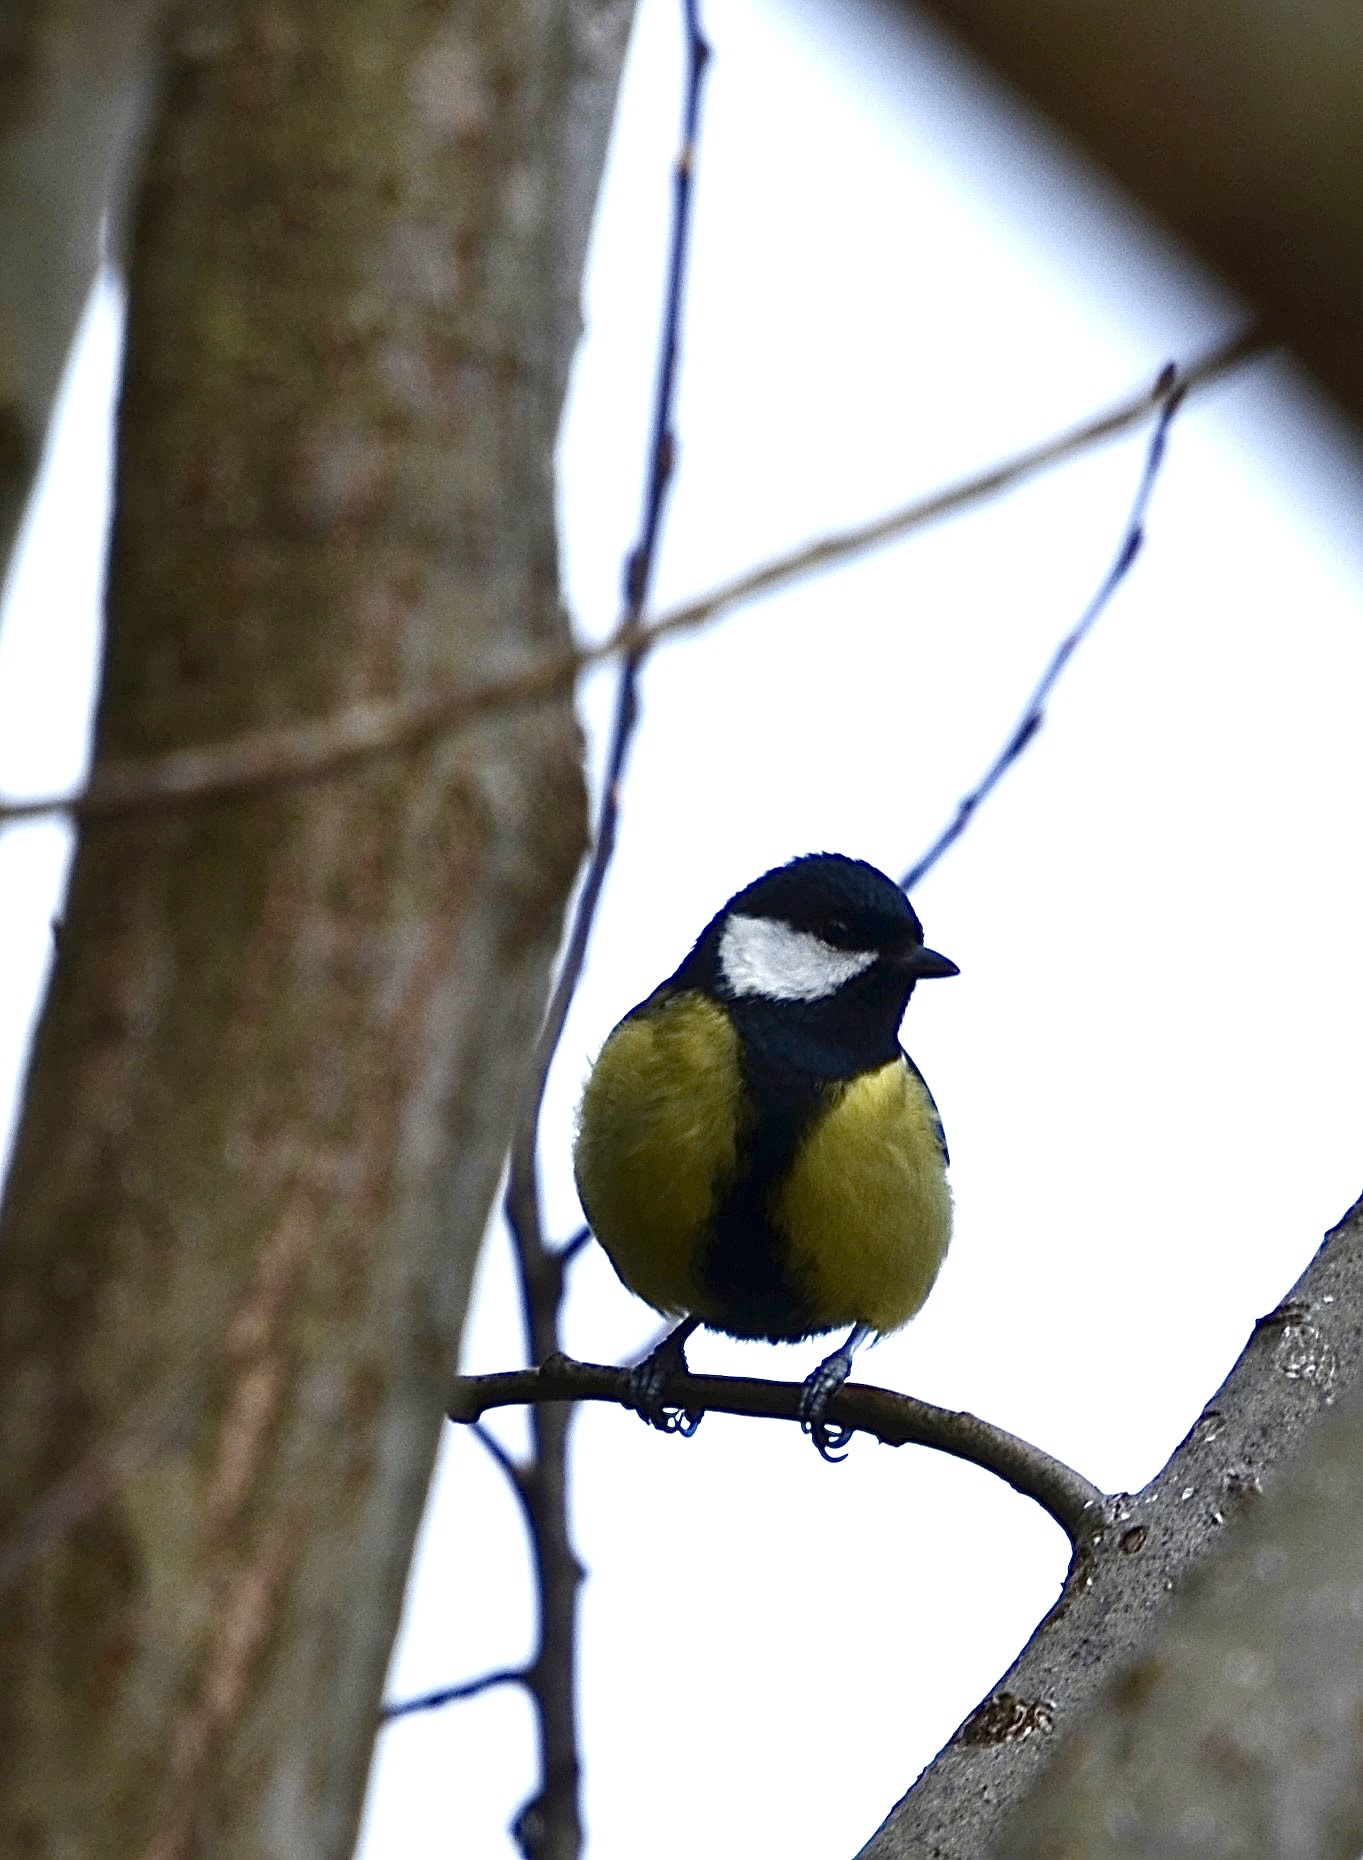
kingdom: Animalia
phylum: Chordata
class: Aves
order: Passeriformes
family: Paridae
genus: Parus
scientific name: Parus major
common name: Great tit
